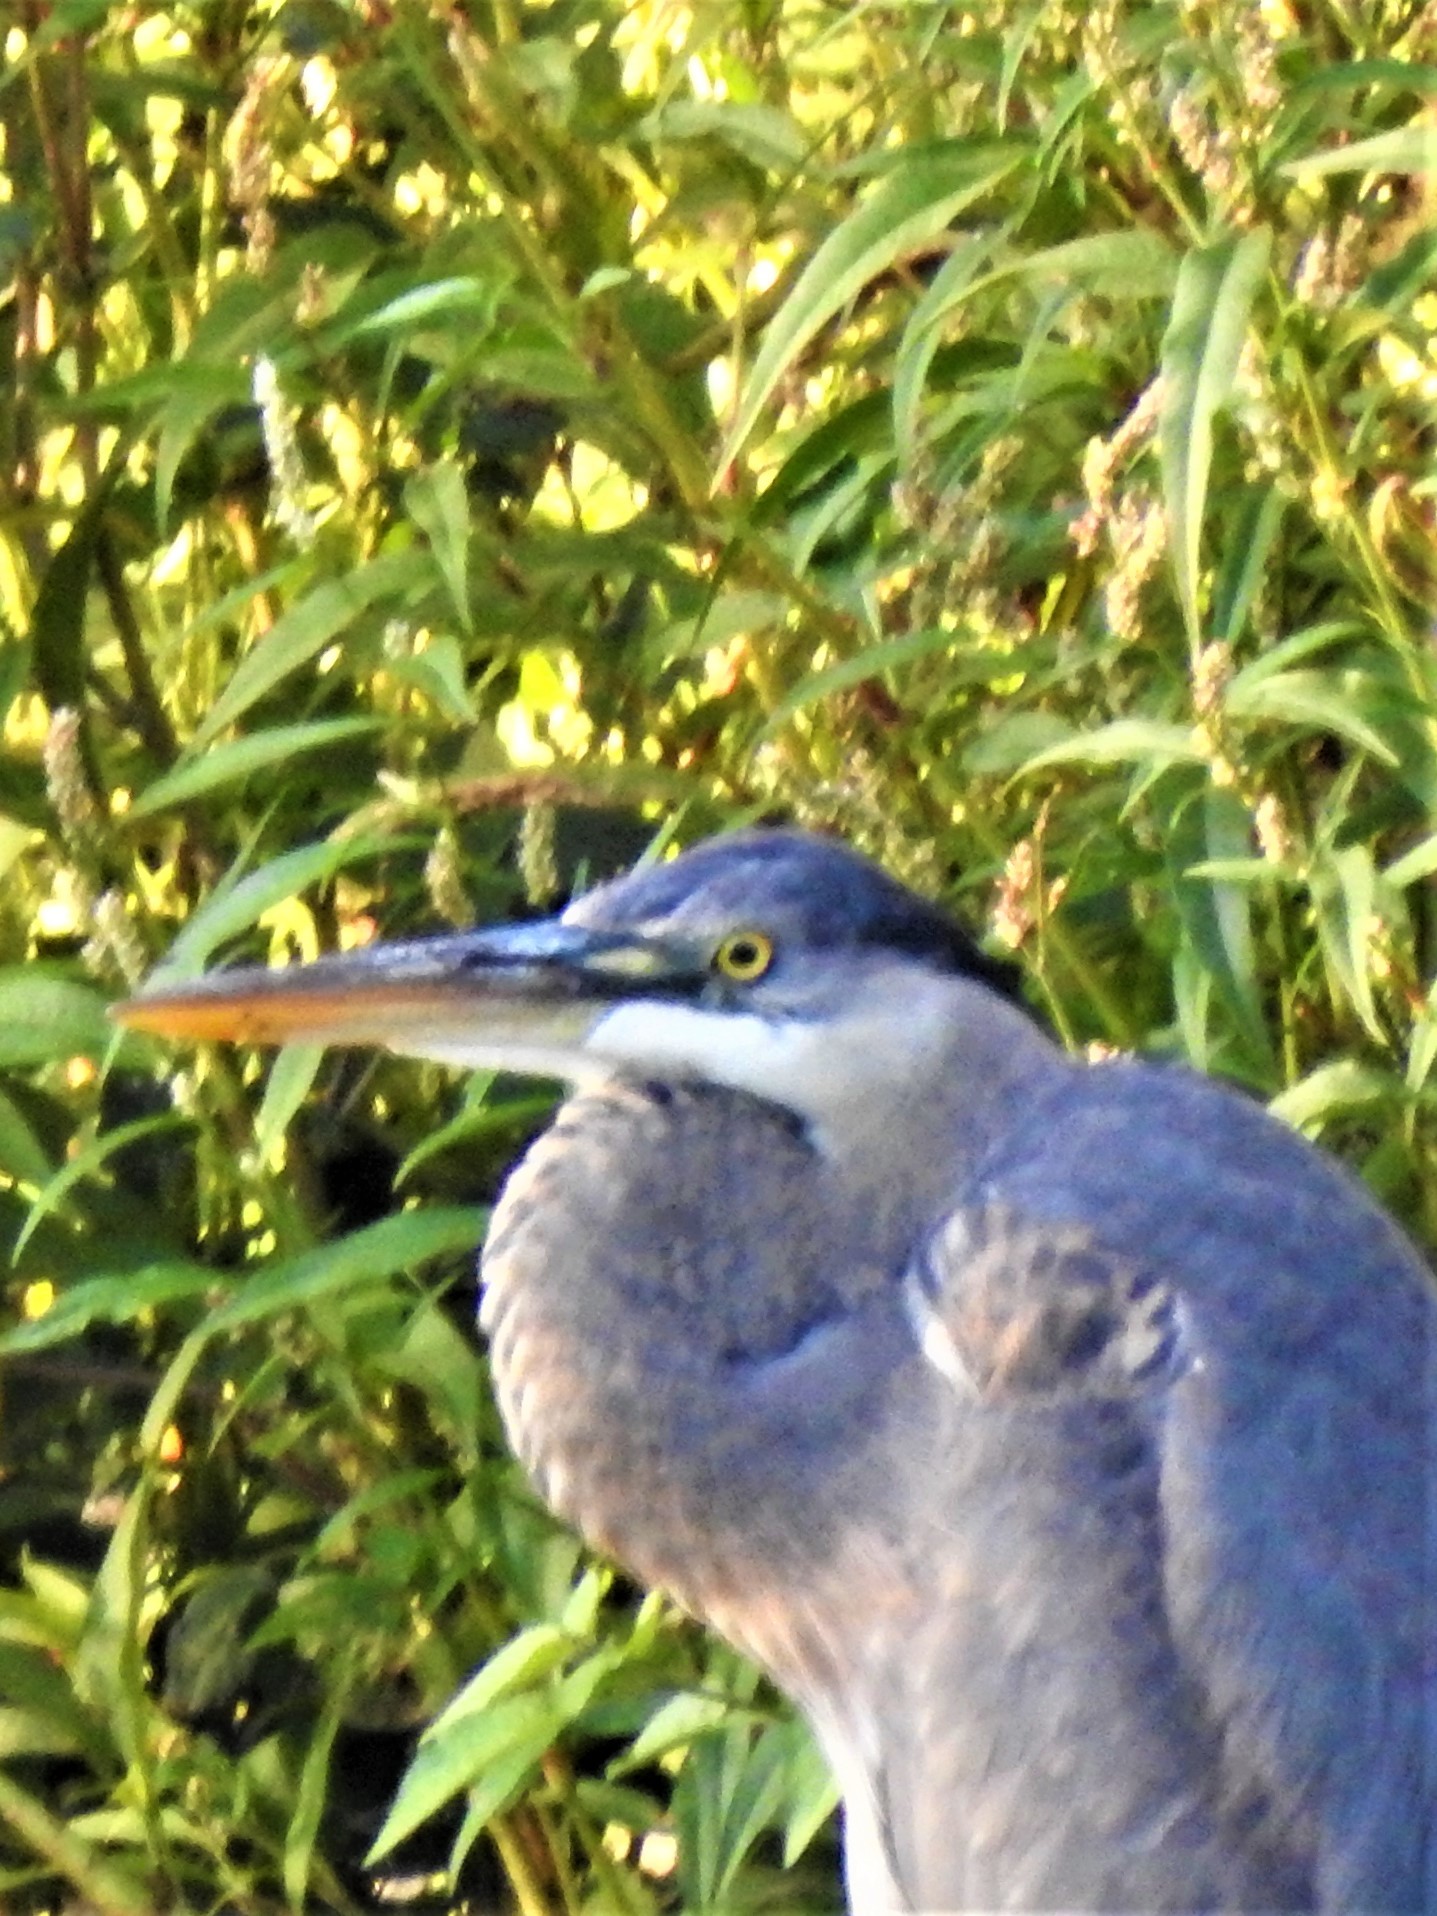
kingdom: Animalia
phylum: Chordata
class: Aves
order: Pelecaniformes
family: Ardeidae
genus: Ardea
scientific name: Ardea herodias
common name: Great blue heron
